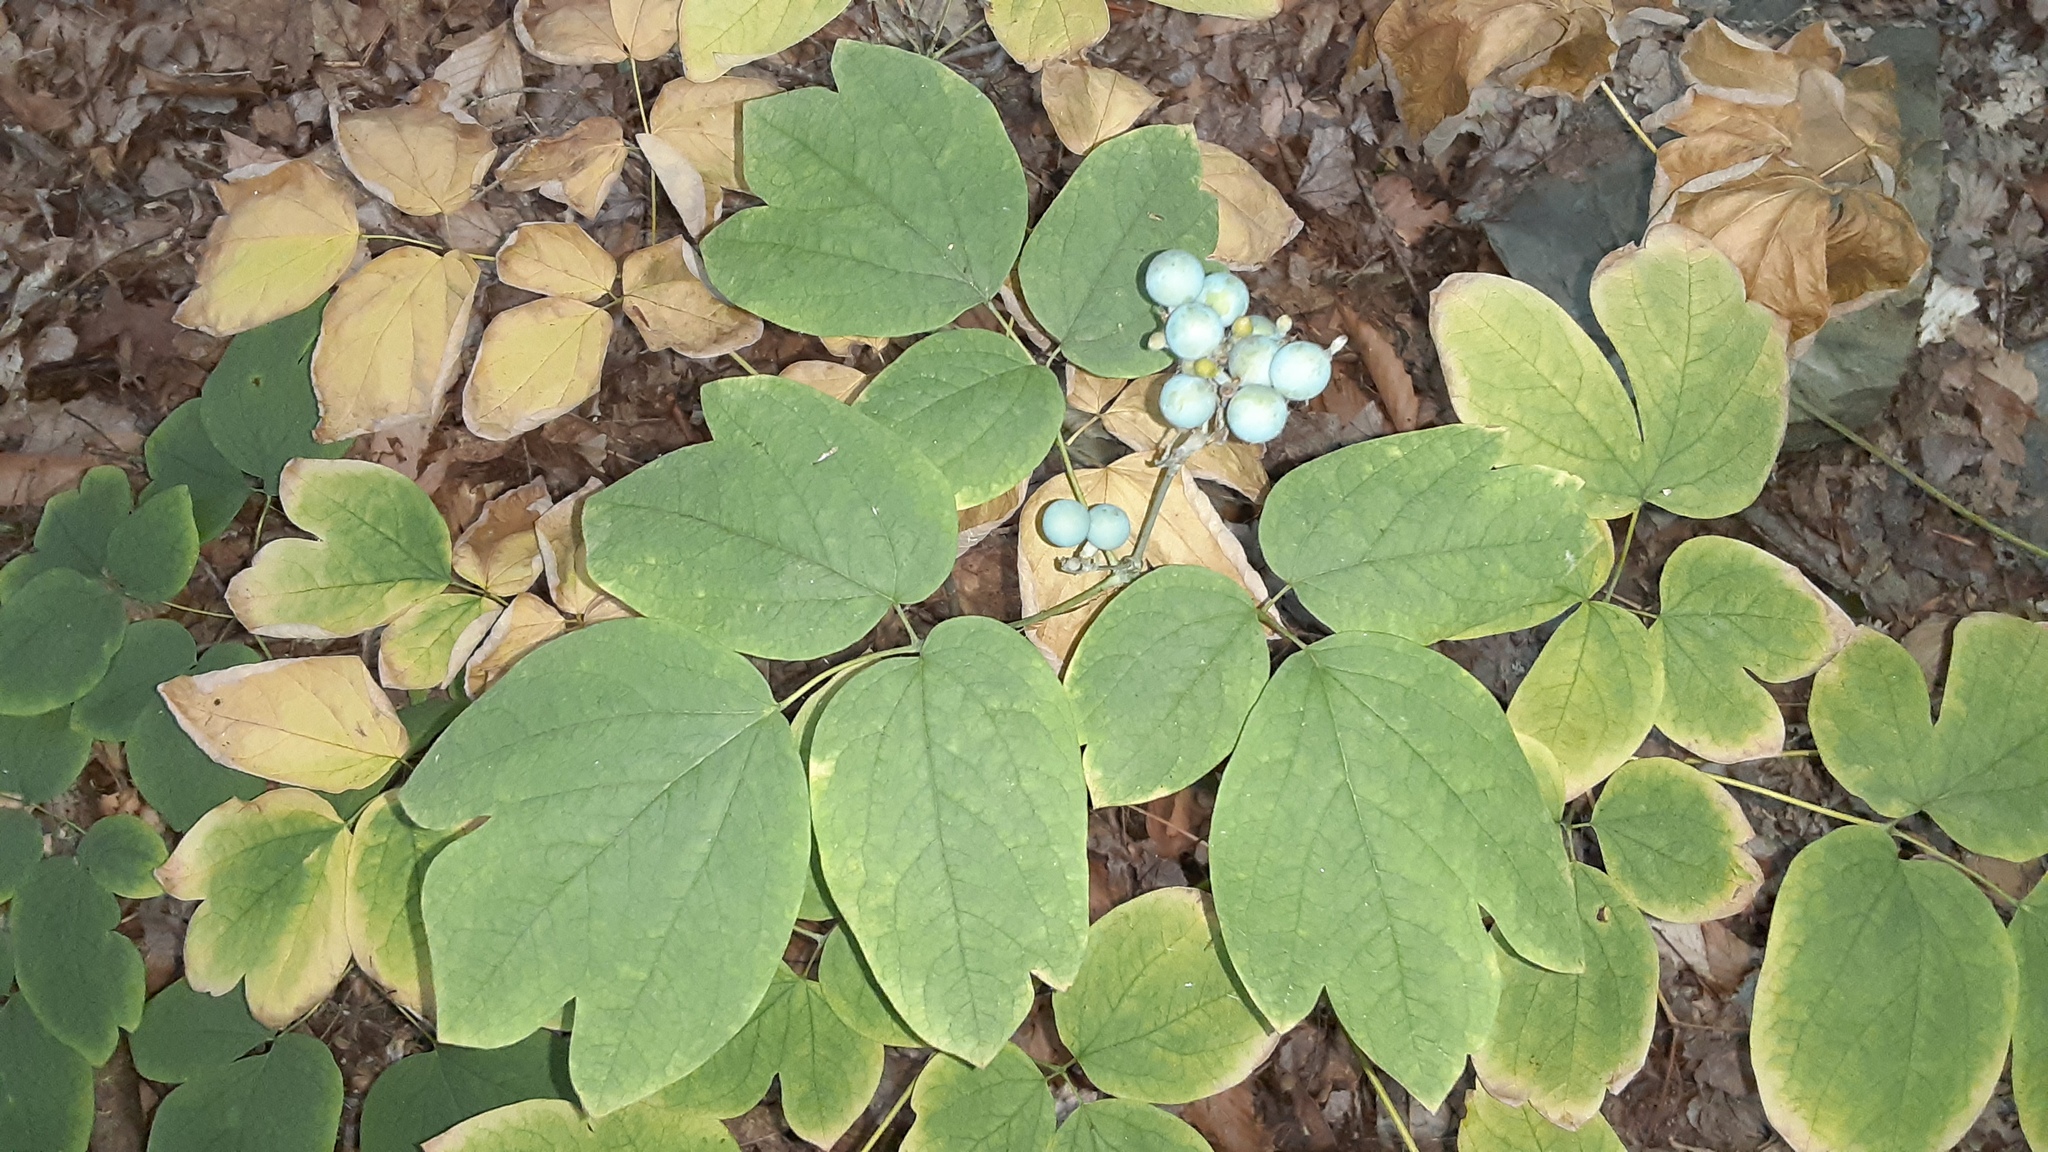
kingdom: Plantae
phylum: Tracheophyta
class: Magnoliopsida
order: Ranunculales
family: Berberidaceae
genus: Caulophyllum
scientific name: Caulophyllum thalictroides
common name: Blue cohosh
